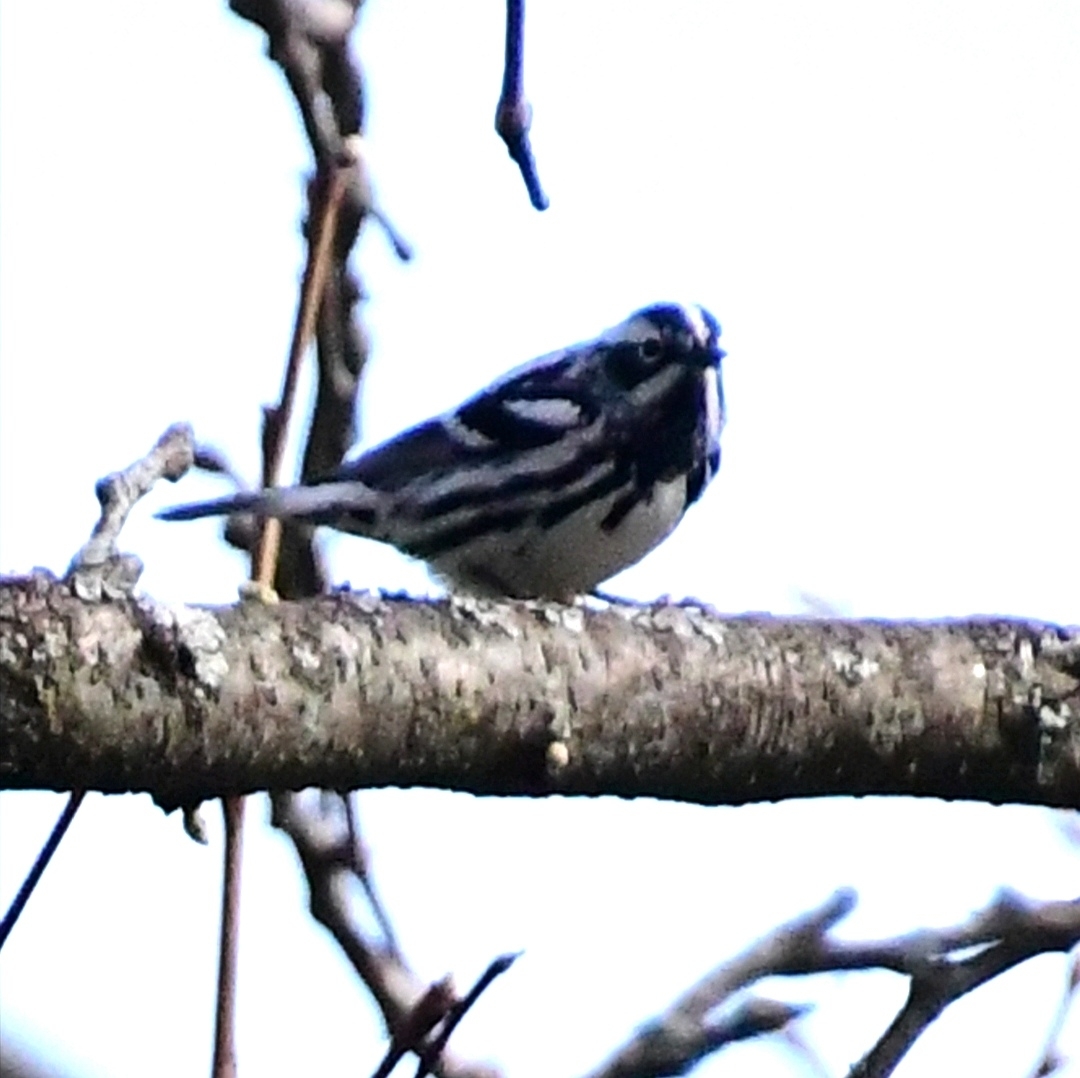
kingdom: Animalia
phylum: Chordata
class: Aves
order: Passeriformes
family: Parulidae
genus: Mniotilta
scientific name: Mniotilta varia
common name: Black-and-white warbler
